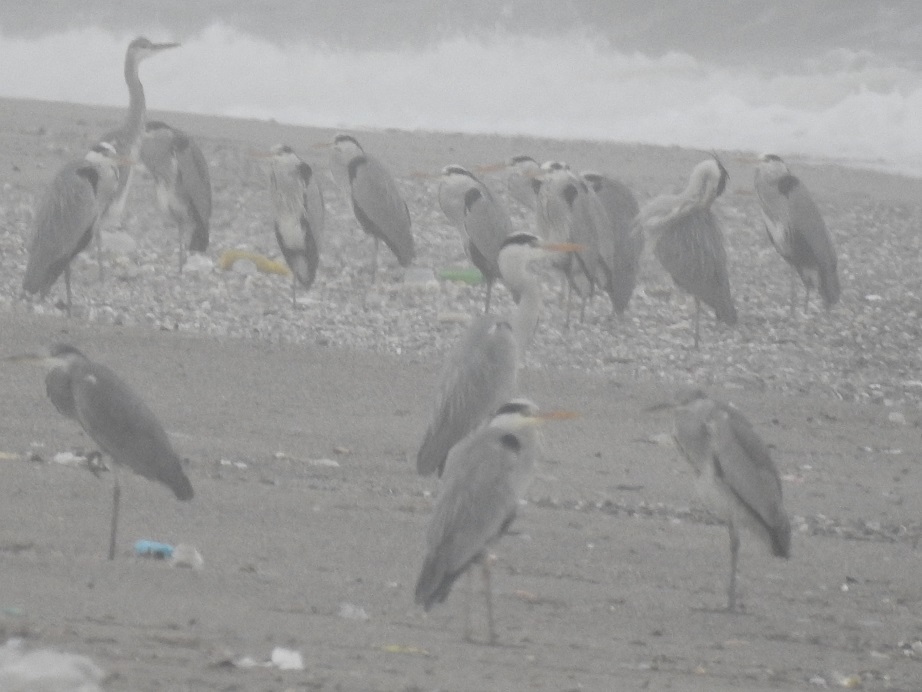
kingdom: Animalia
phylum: Chordata
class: Aves
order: Pelecaniformes
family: Ardeidae
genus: Ardea
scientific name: Ardea cinerea
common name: Grey heron
